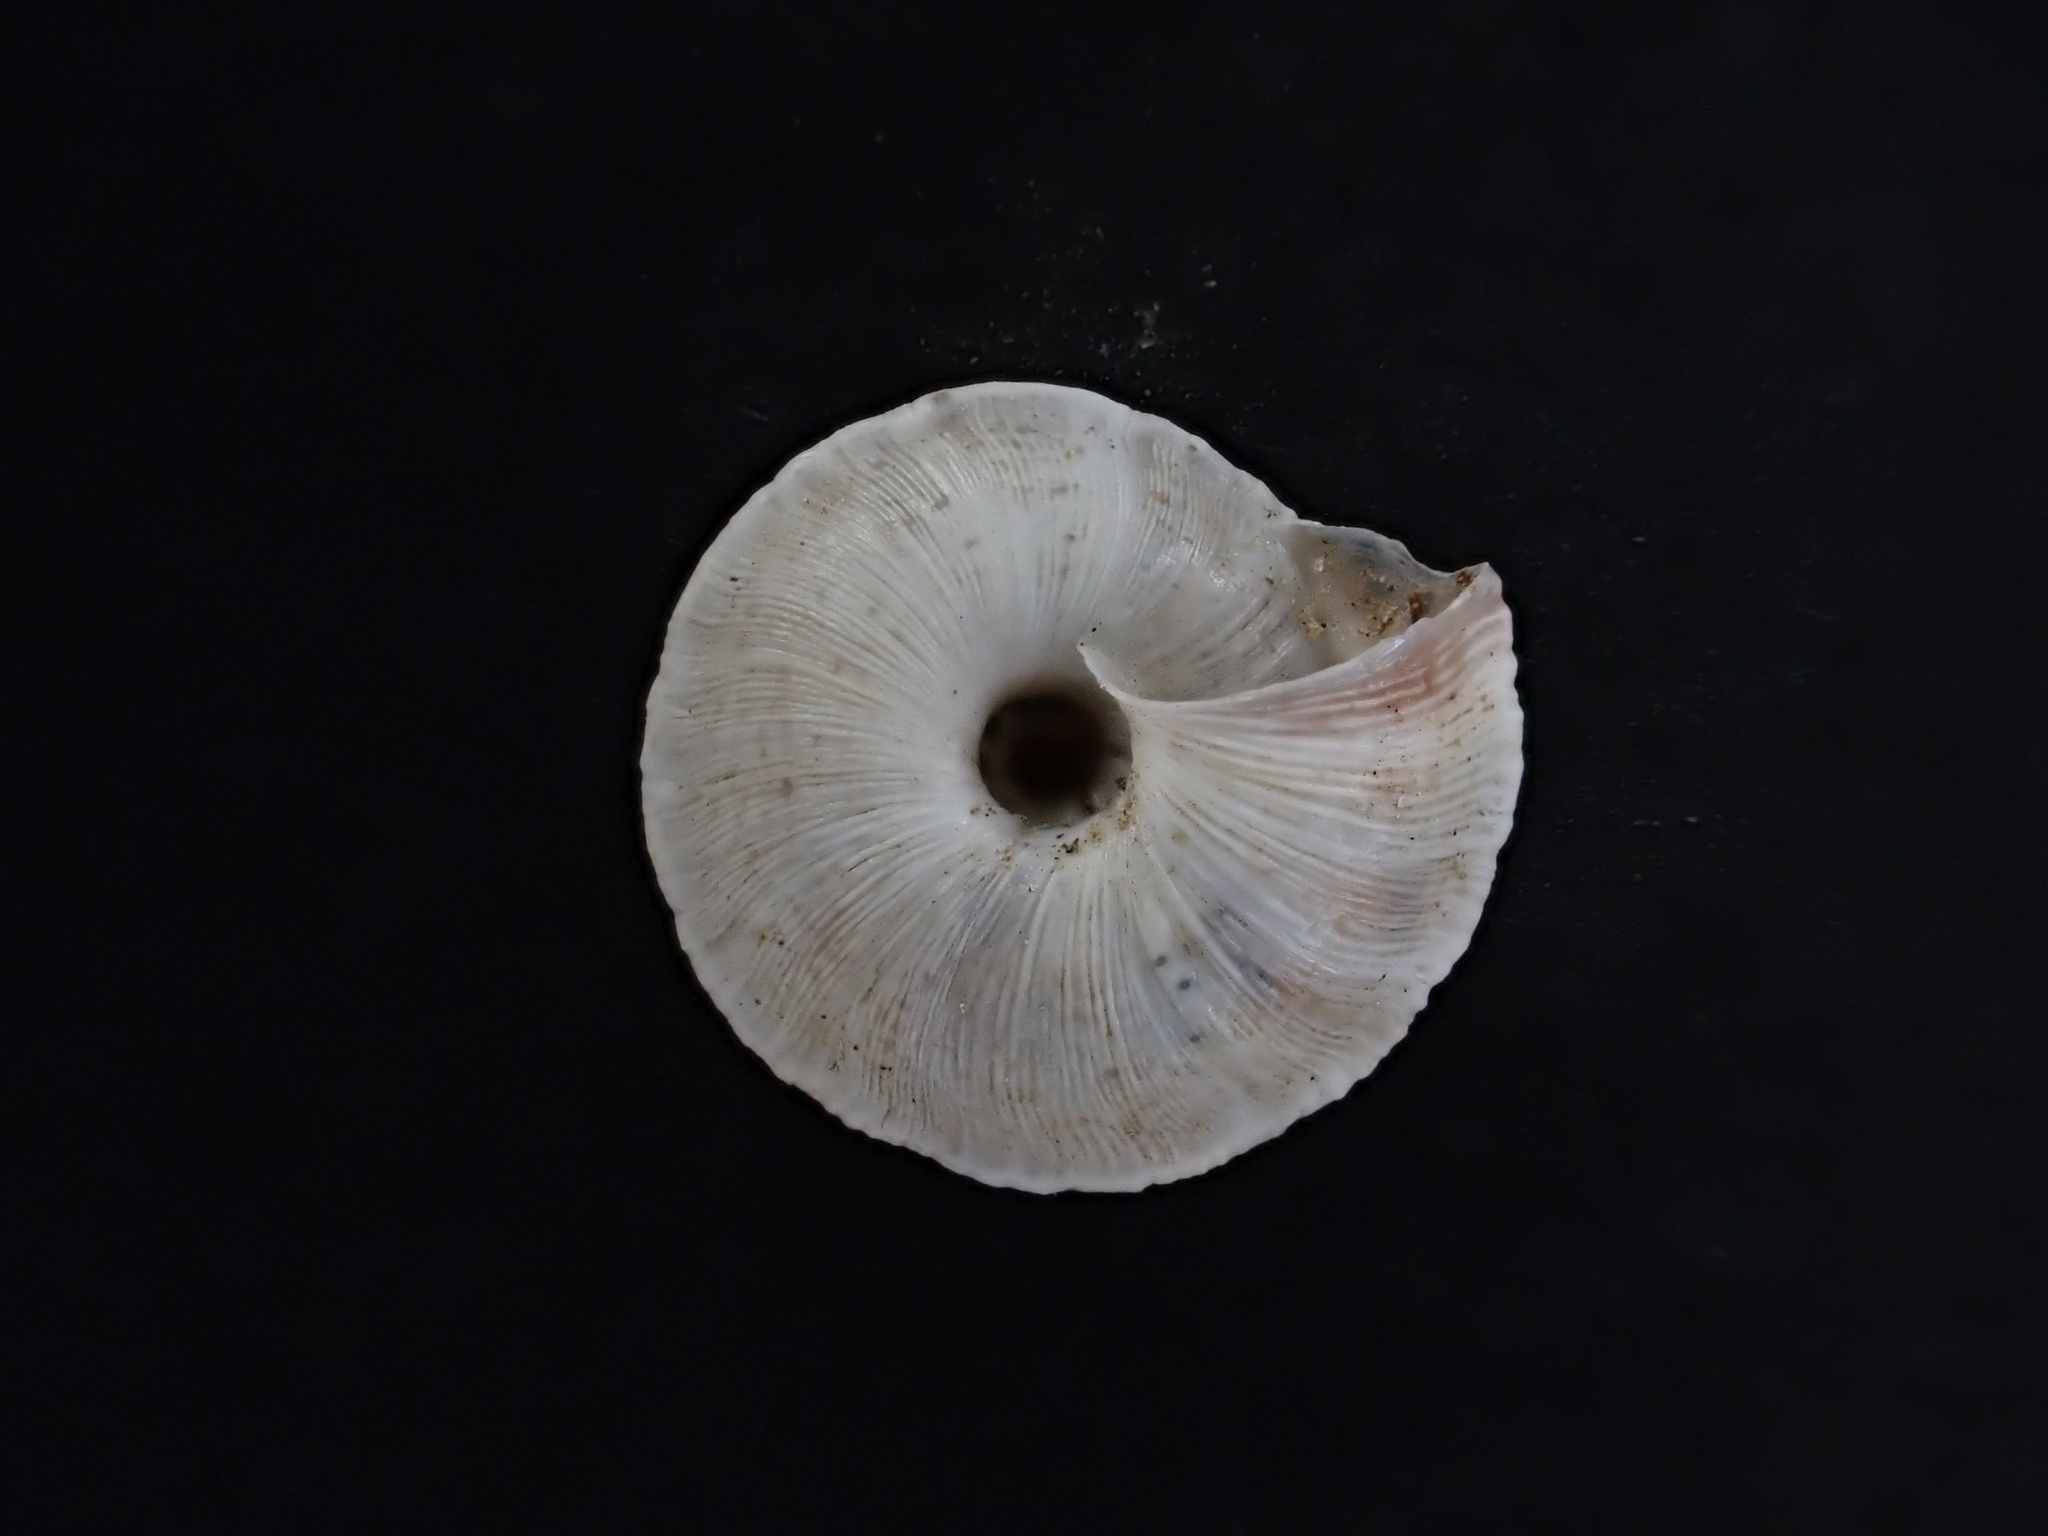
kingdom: Animalia
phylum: Mollusca
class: Gastropoda
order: Stylommatophora
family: Geomitridae
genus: Trochoidea
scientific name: Trochoidea elegans
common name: Elegant helicellid
